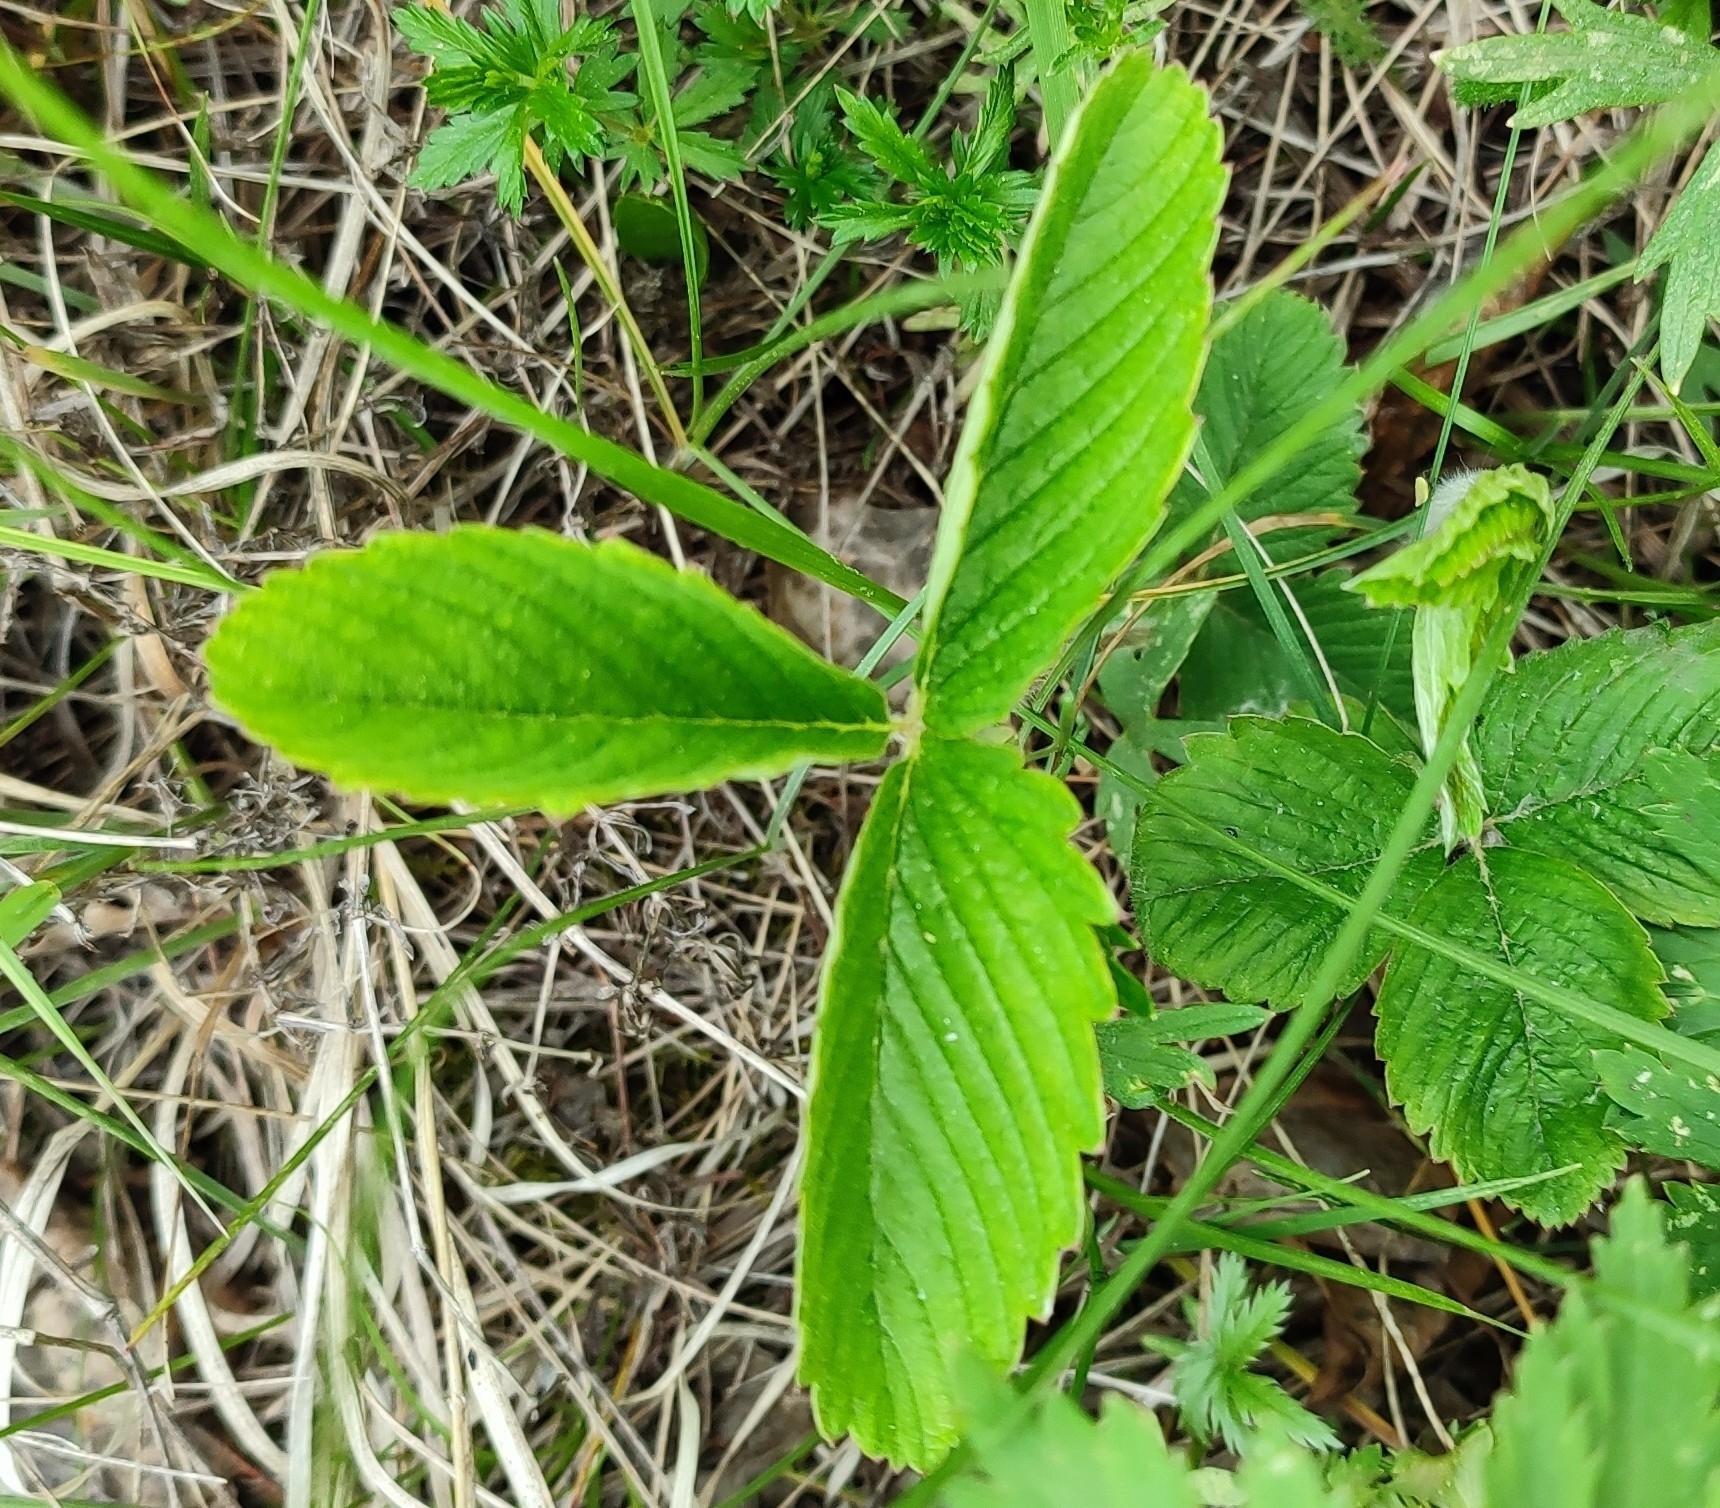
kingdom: Plantae
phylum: Tracheophyta
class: Magnoliopsida
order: Rosales
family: Rosaceae
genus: Fragaria
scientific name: Fragaria viridis
